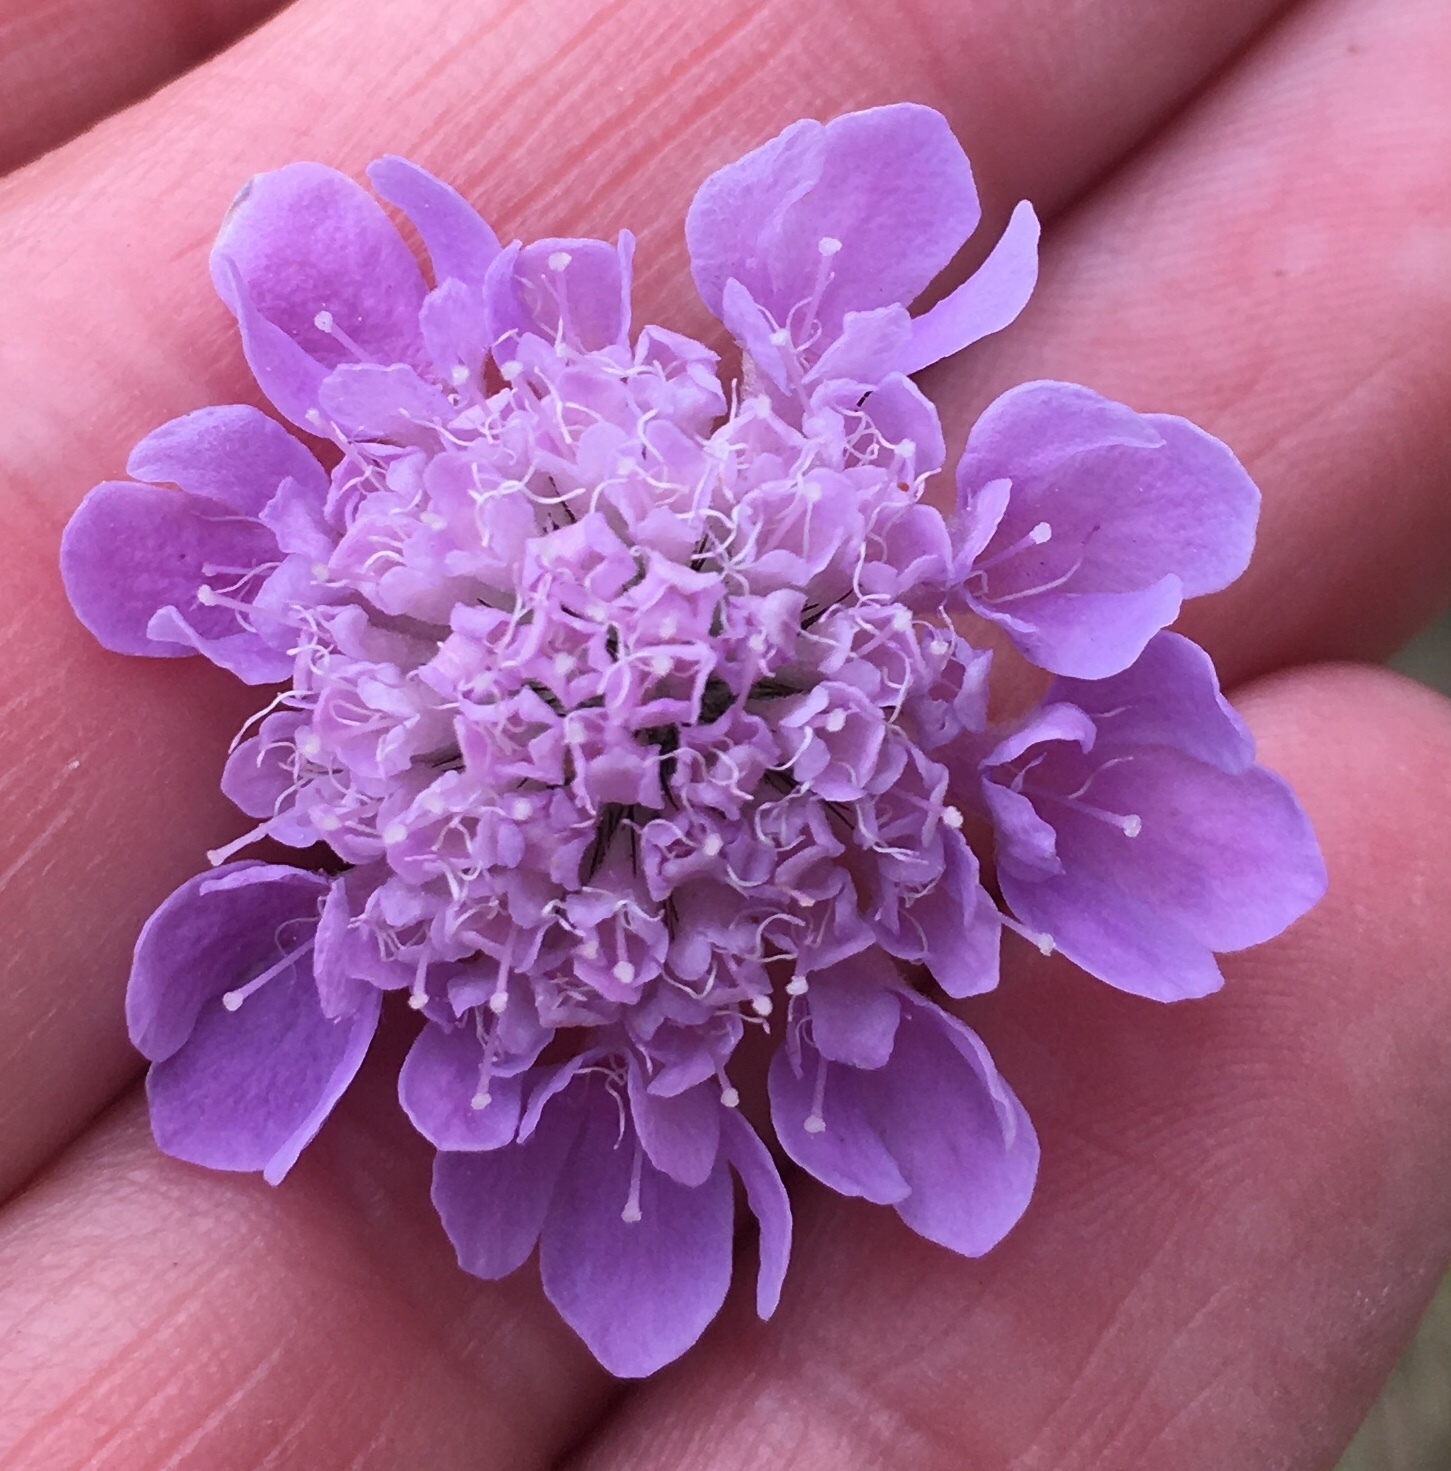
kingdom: Plantae
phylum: Tracheophyta
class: Magnoliopsida
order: Dipsacales
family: Caprifoliaceae
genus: Knautia
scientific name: Knautia arvensis
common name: Field scabiosa
